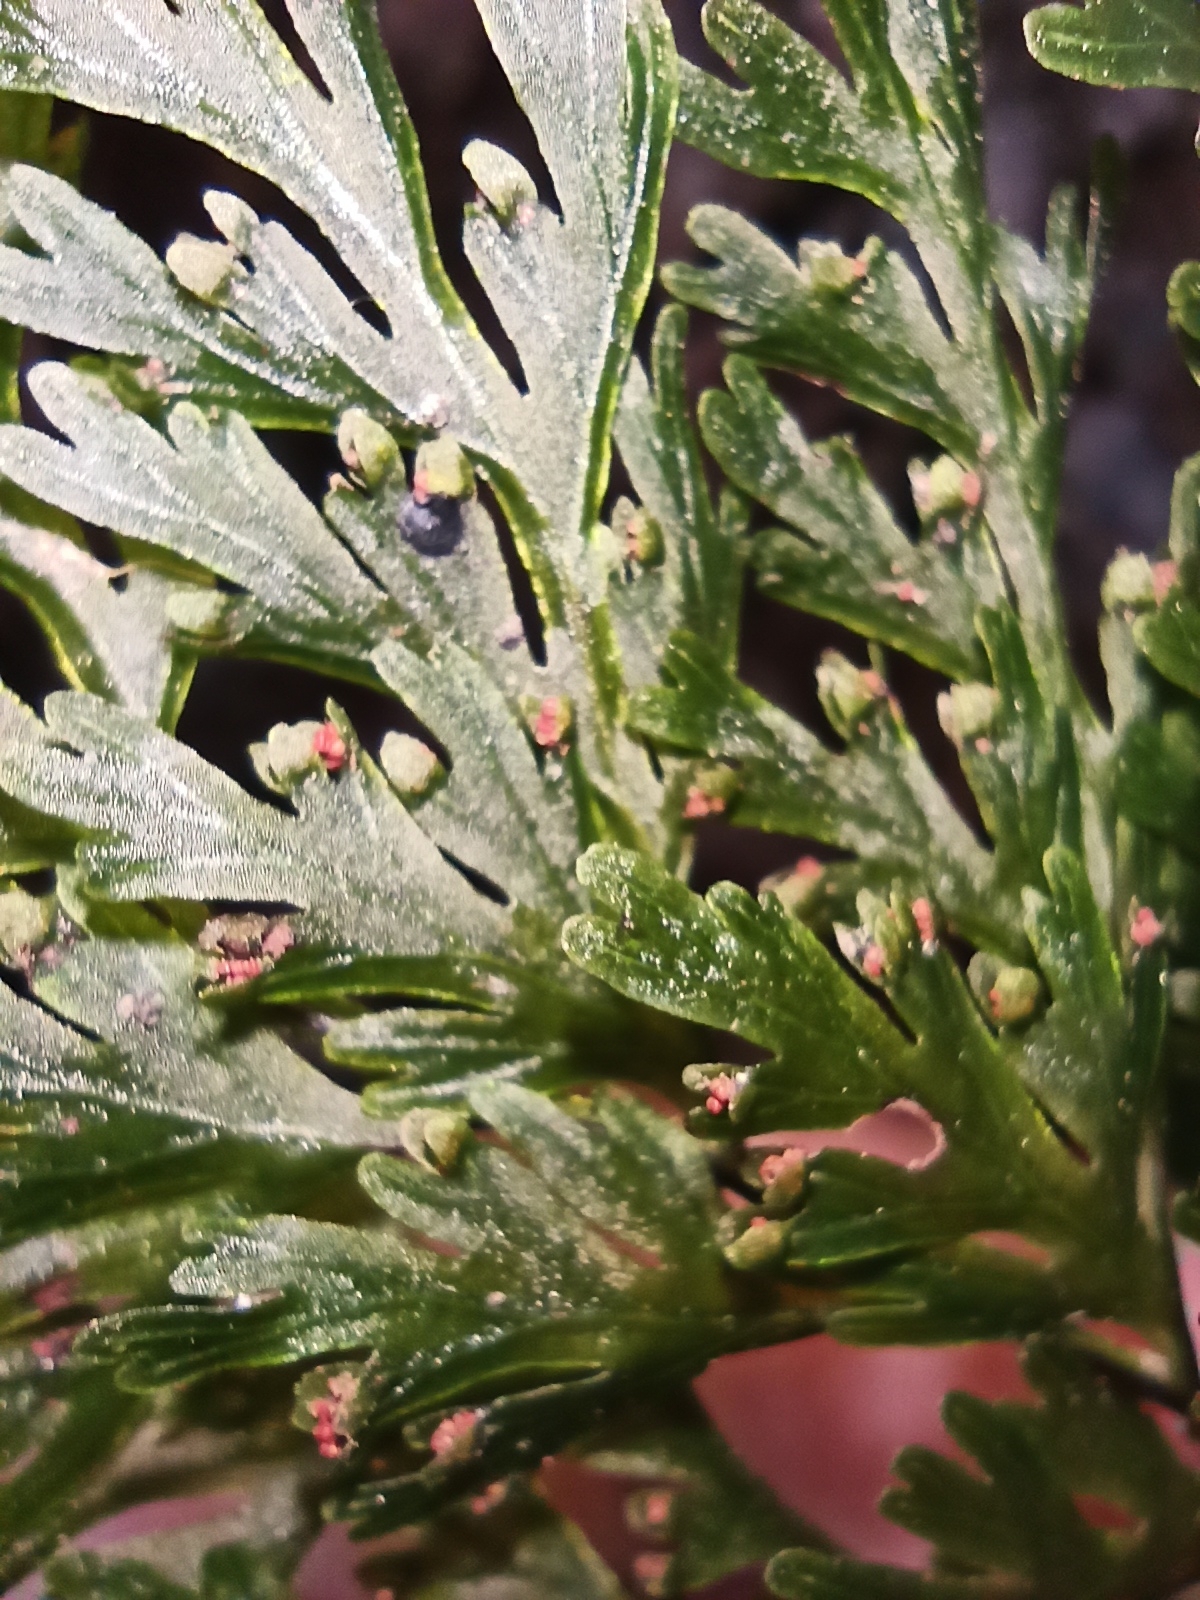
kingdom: Plantae
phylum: Tracheophyta
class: Polypodiopsida
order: Hymenophyllales
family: Hymenophyllaceae
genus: Hymenophyllum
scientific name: Hymenophyllum demissum
